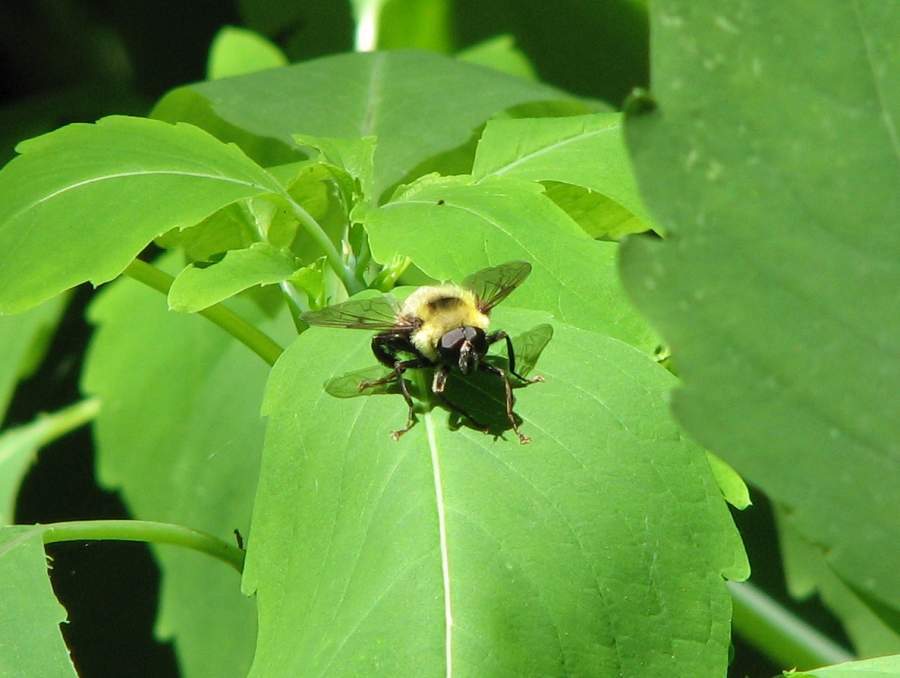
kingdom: Animalia
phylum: Arthropoda
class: Insecta
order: Diptera
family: Syrphidae
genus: Imatisma
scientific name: Imatisma posticata
